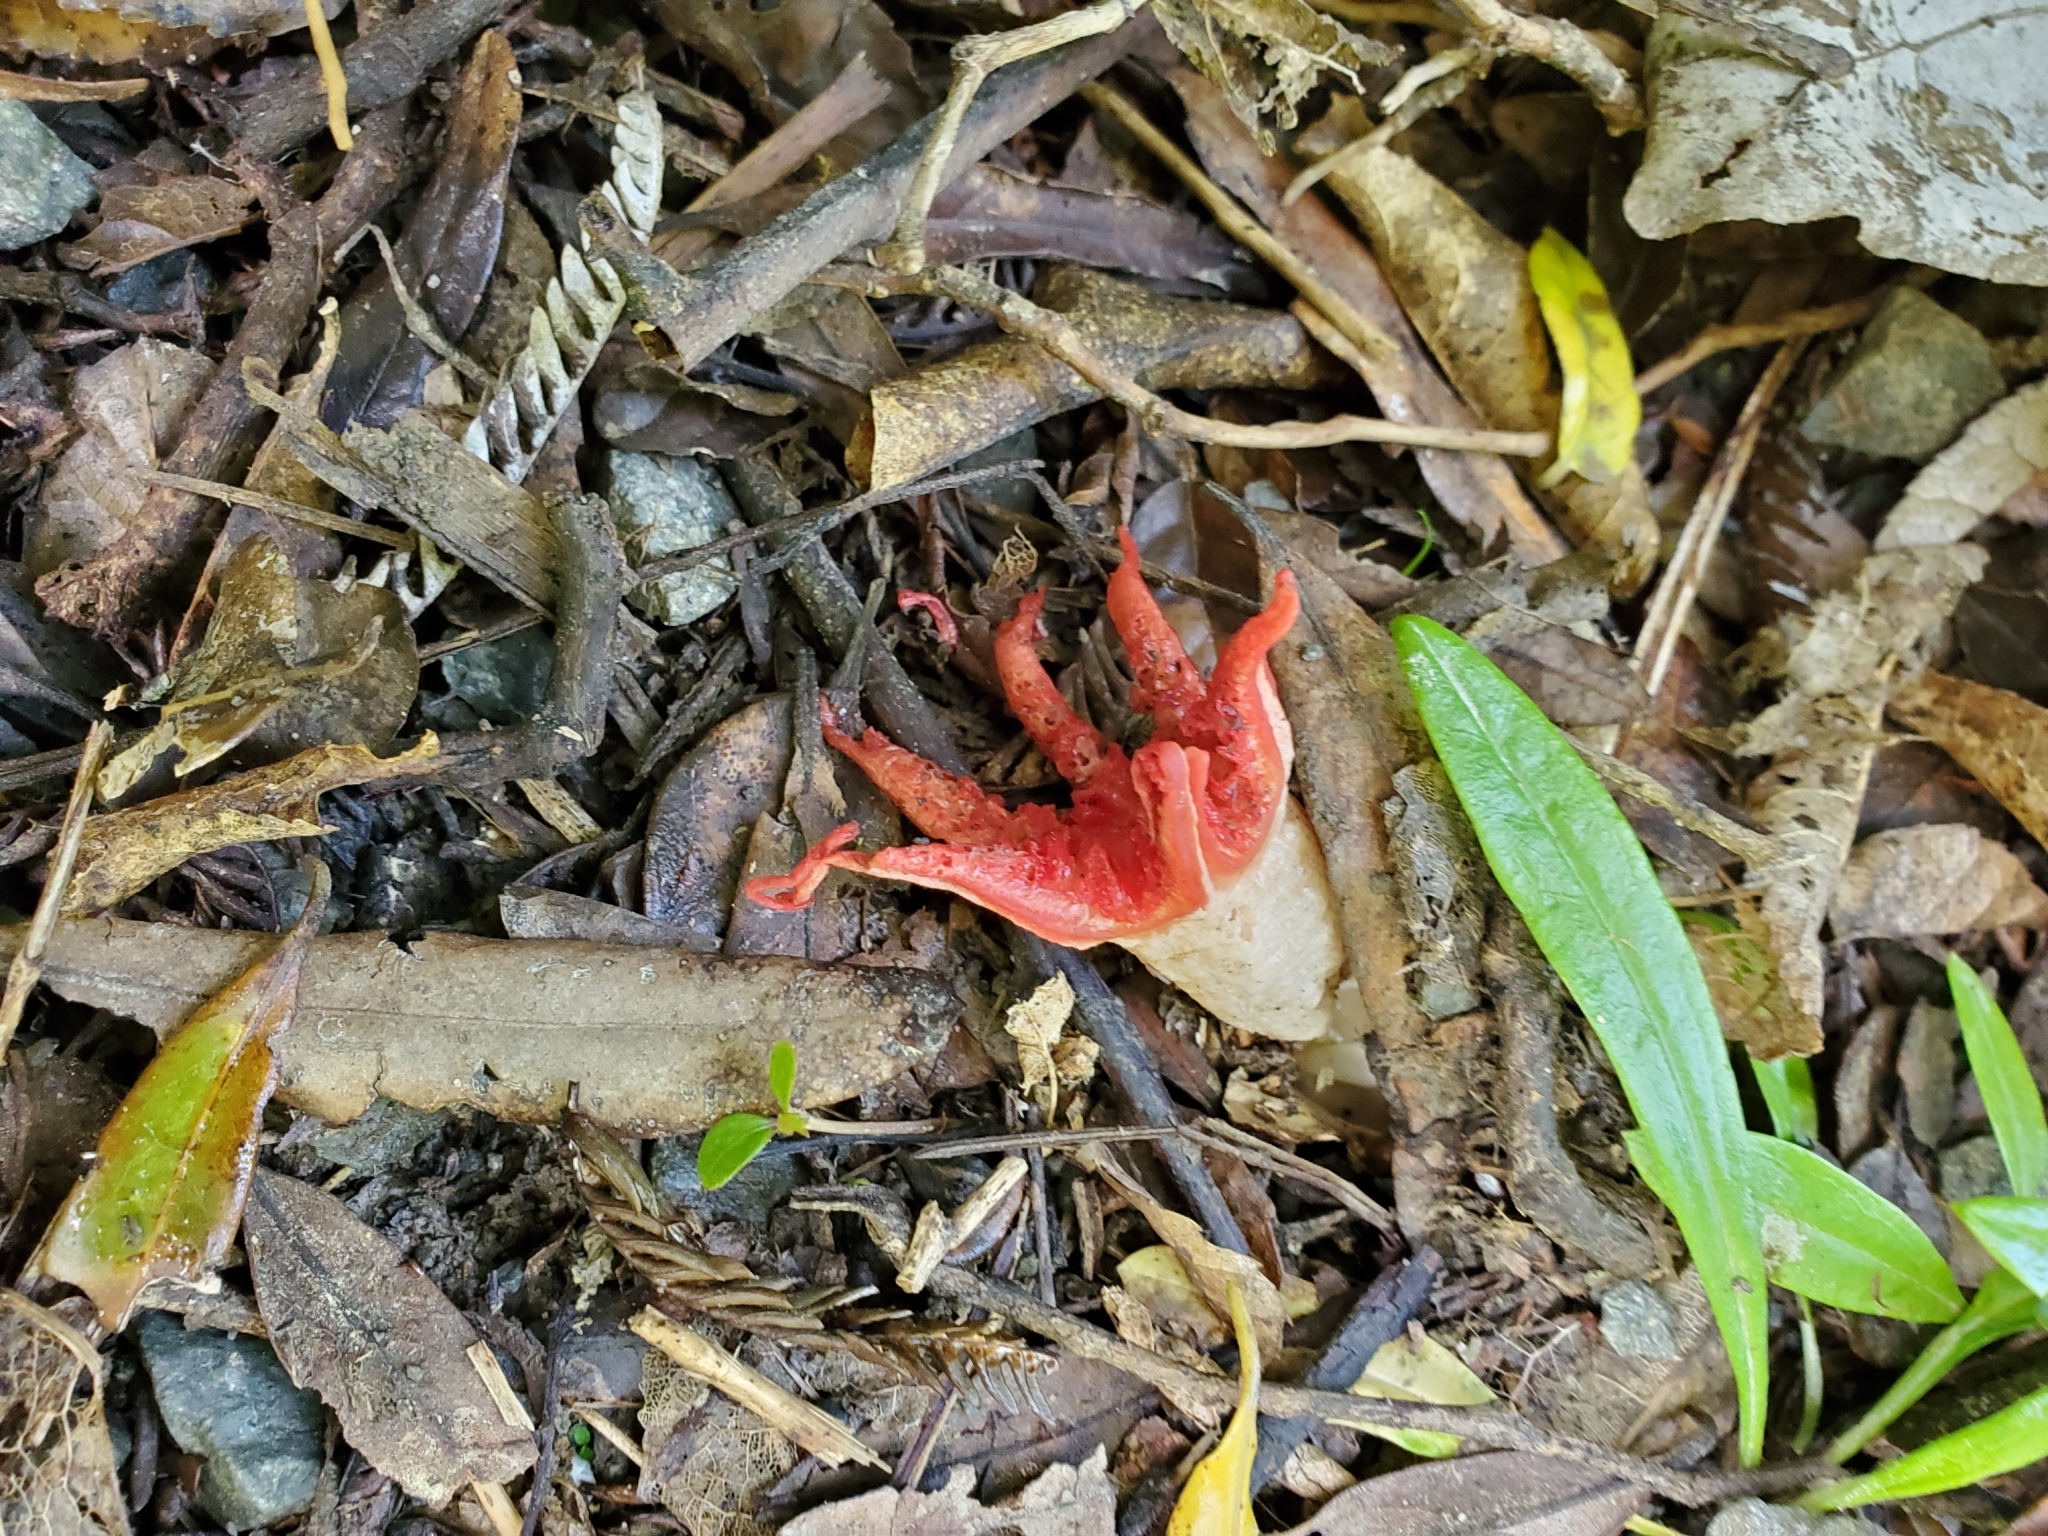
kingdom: Fungi
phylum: Basidiomycota
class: Agaricomycetes
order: Phallales
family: Phallaceae
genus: Aseroe
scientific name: Aseroe rubra
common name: Starfish fungus
